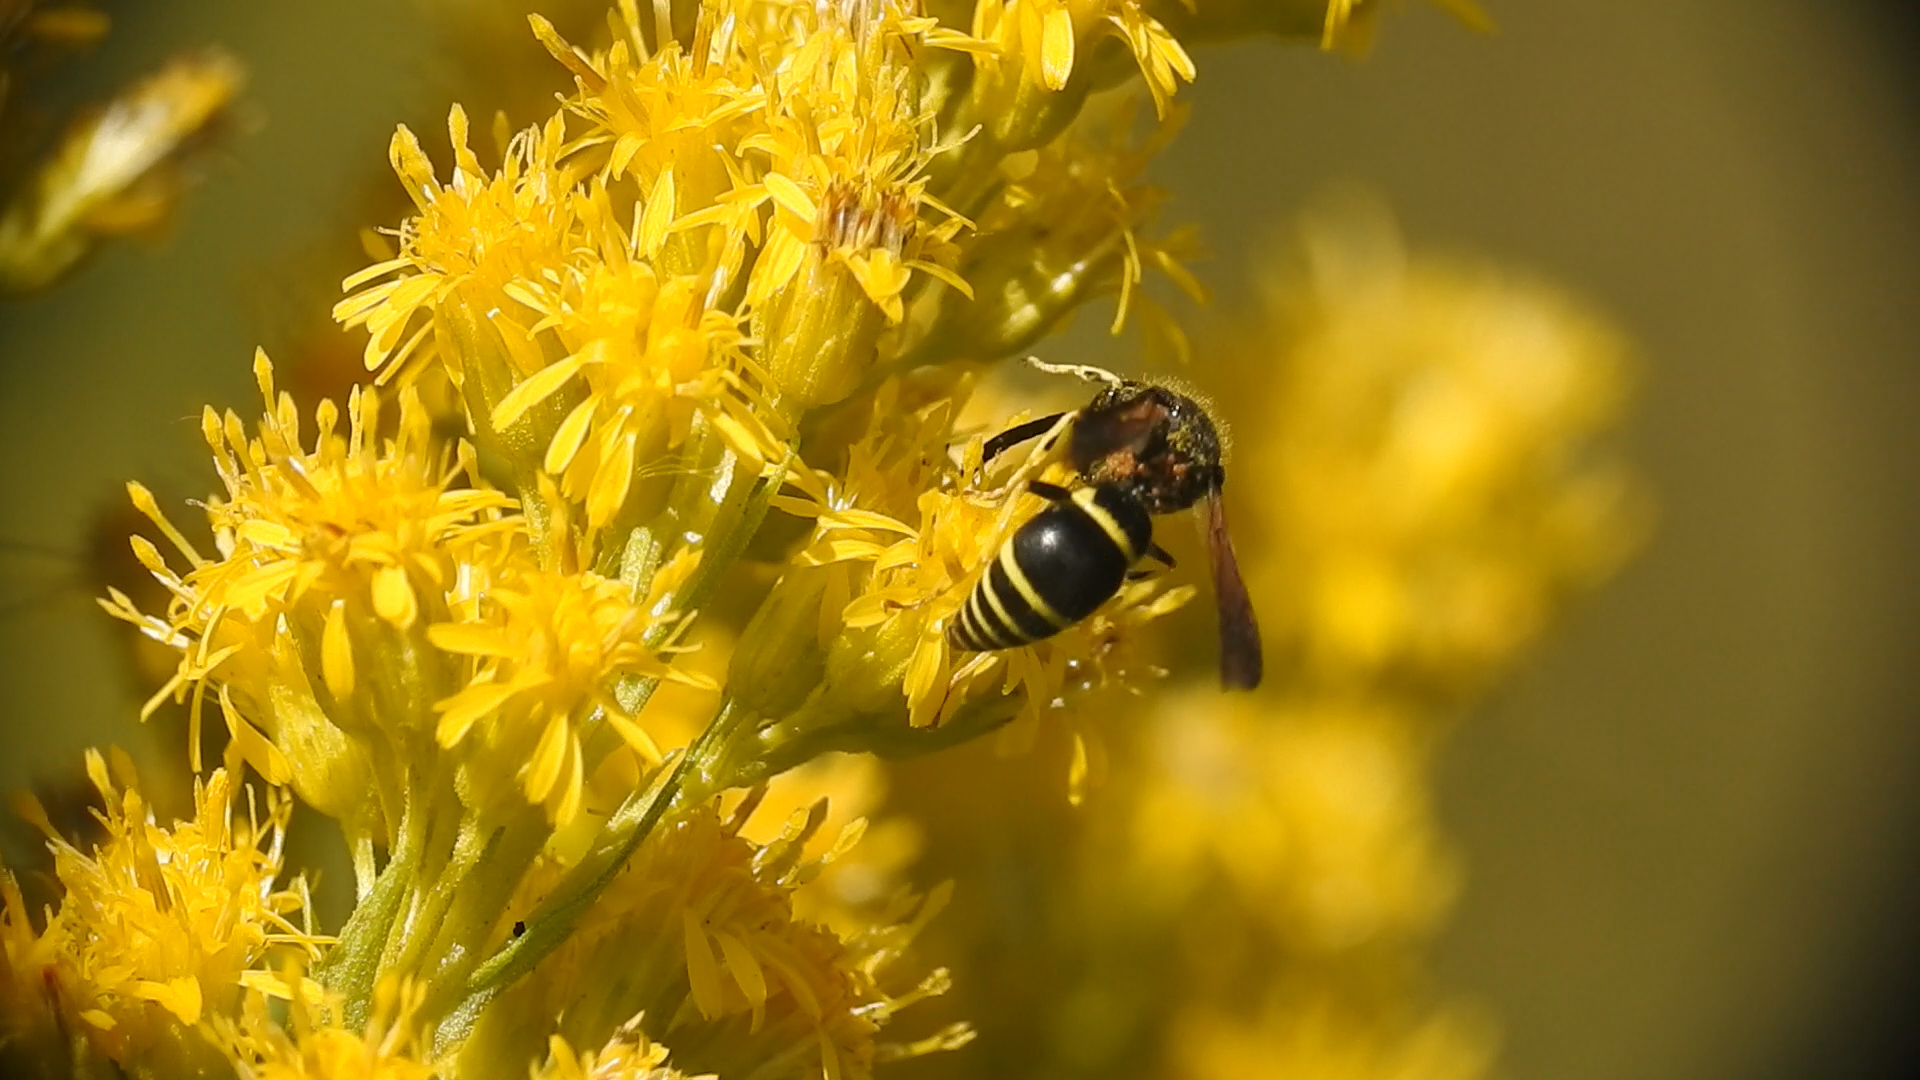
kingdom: Animalia
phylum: Arthropoda
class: Insecta
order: Hymenoptera
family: Vespidae
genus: Ancistrocerus
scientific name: Ancistrocerus
